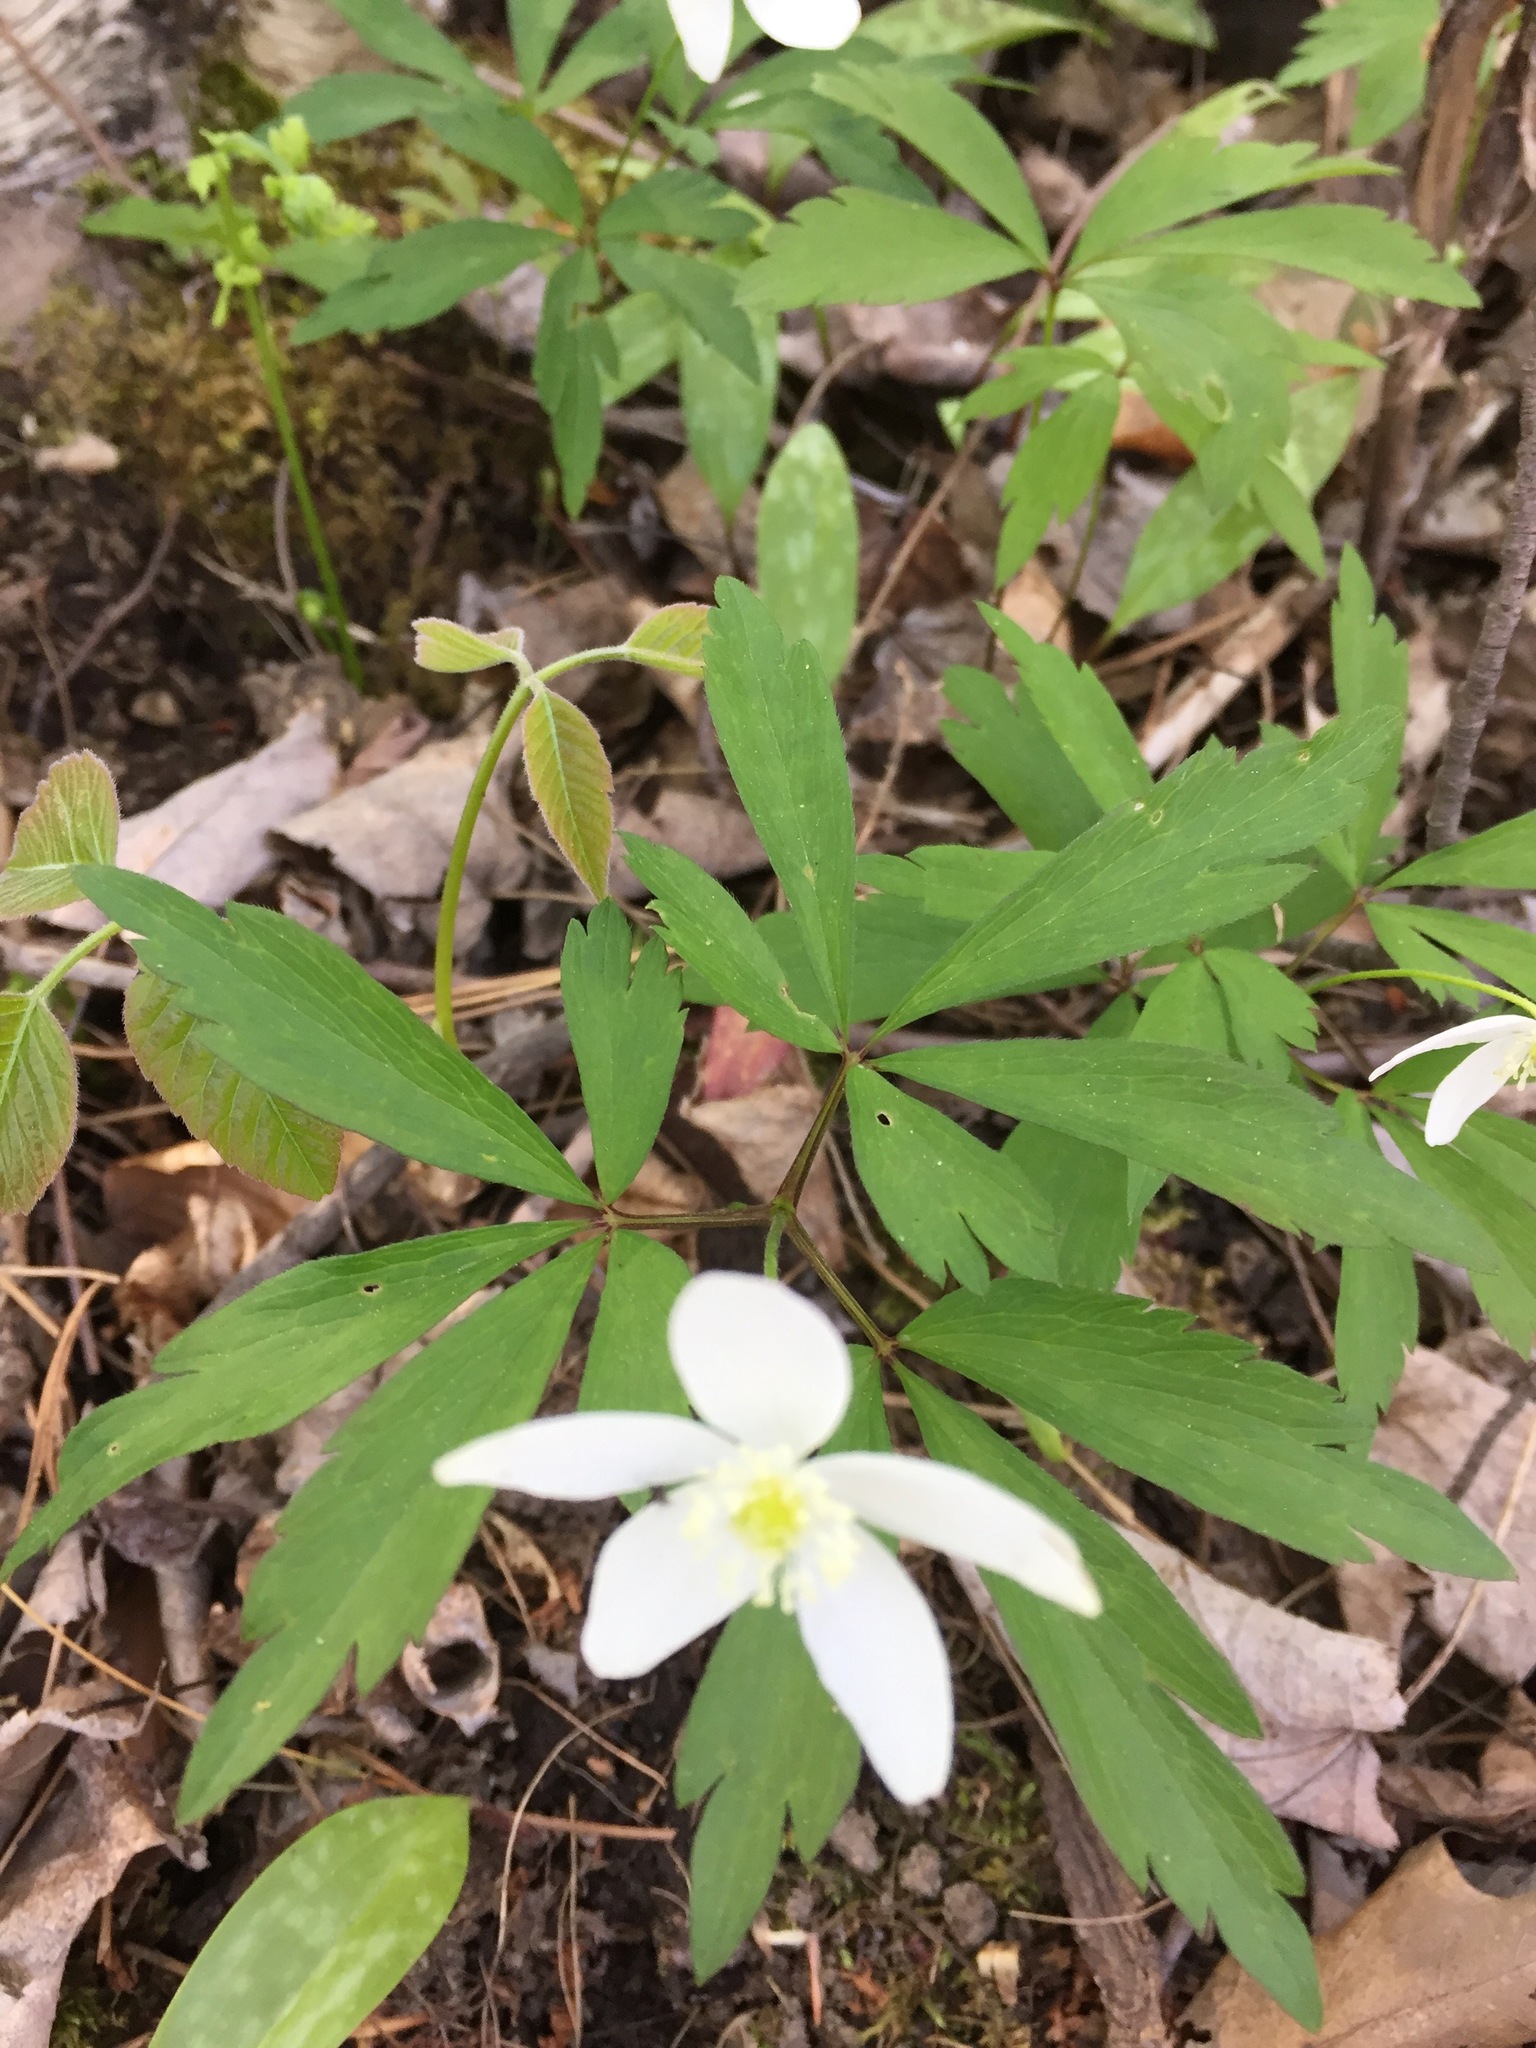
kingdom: Plantae
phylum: Tracheophyta
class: Magnoliopsida
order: Ranunculales
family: Ranunculaceae
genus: Anemone
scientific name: Anemone quinquefolia
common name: Wood anemone
